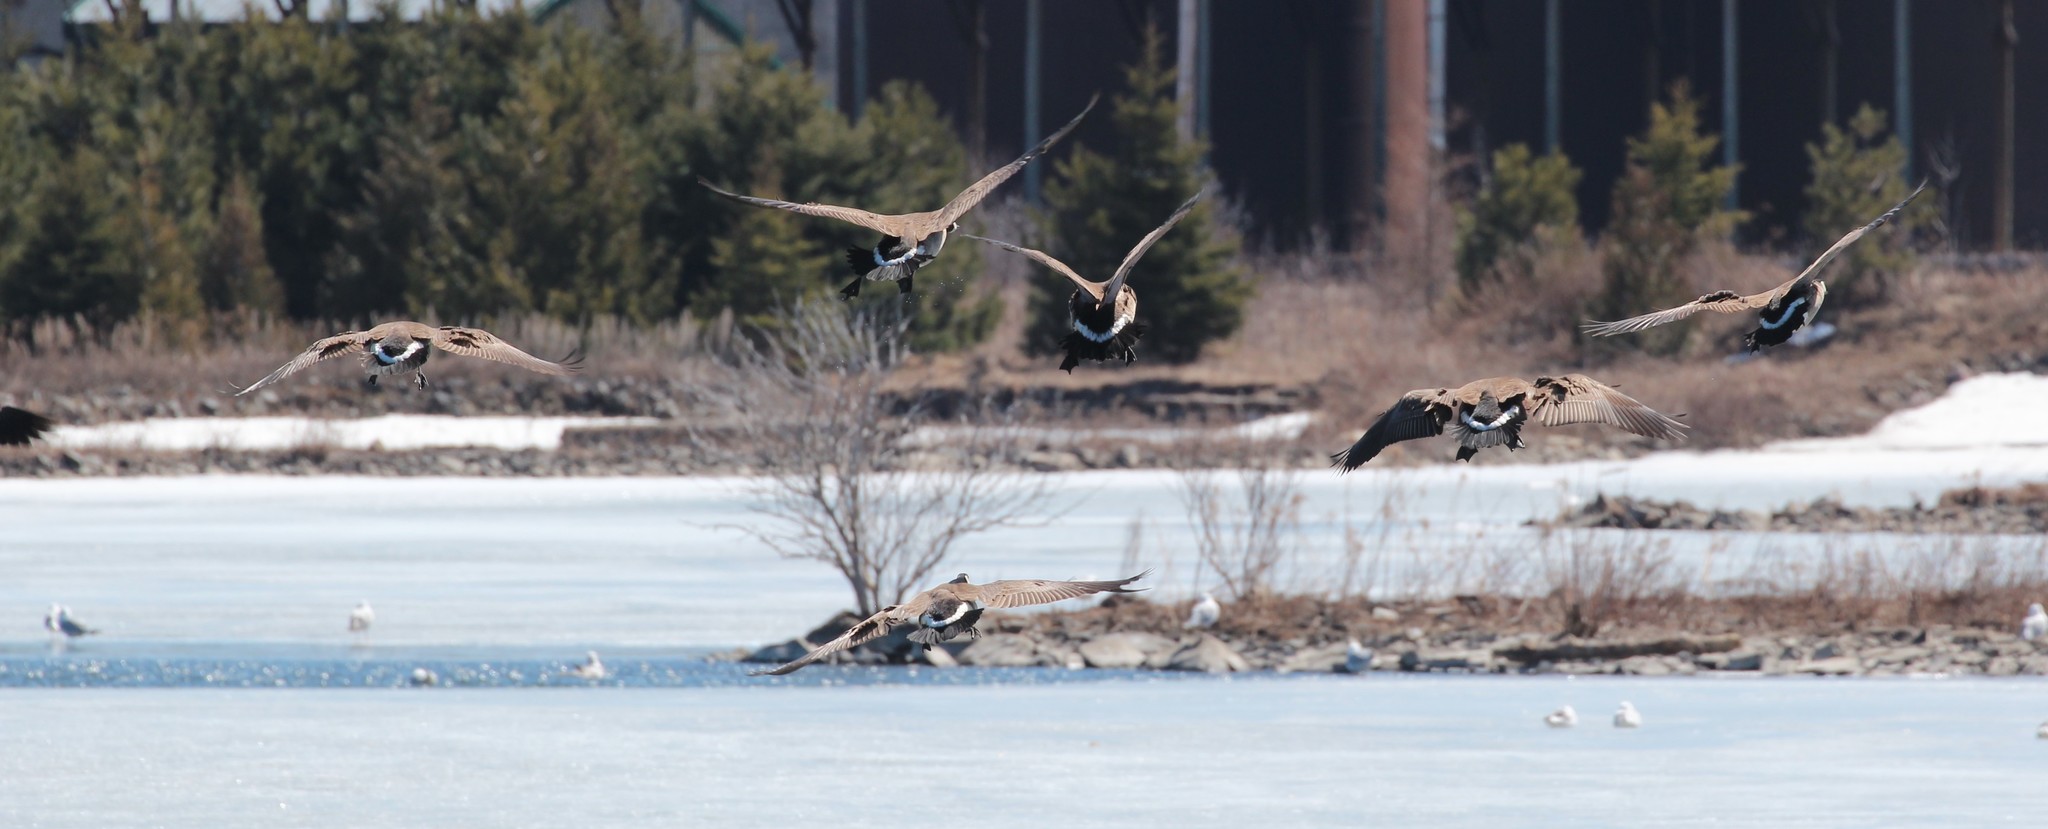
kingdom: Animalia
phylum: Chordata
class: Aves
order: Anseriformes
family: Anatidae
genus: Branta
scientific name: Branta canadensis
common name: Canada goose
